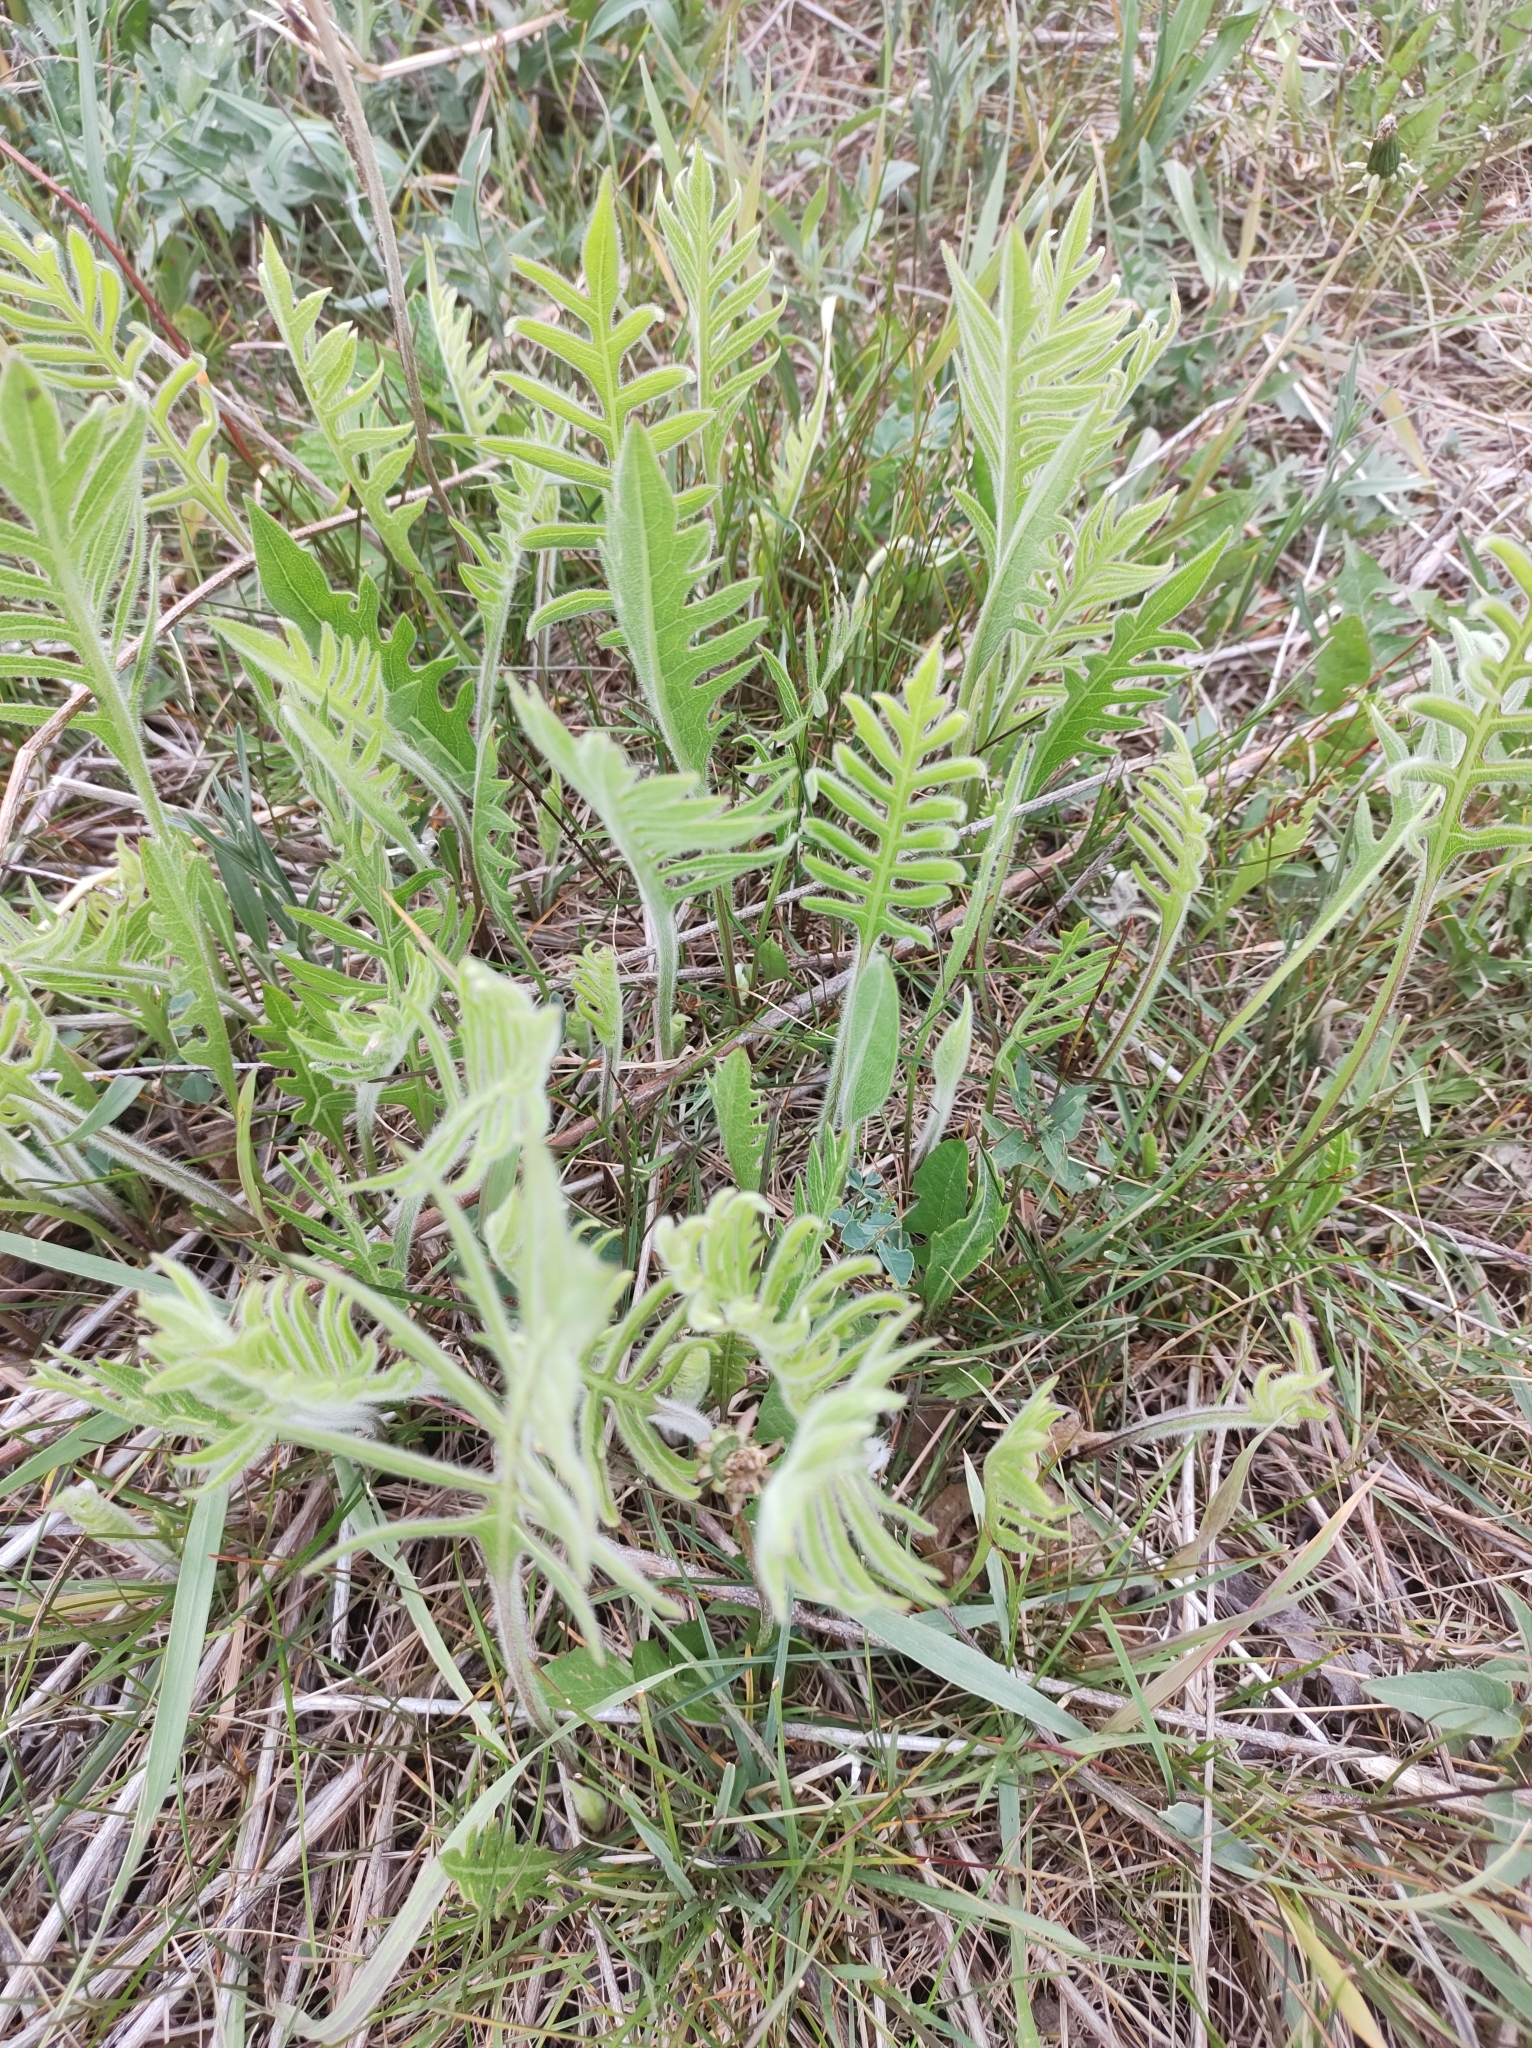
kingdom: Plantae
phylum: Tracheophyta
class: Magnoliopsida
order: Asterales
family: Asteraceae
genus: Silphium
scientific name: Silphium laciniatum
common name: Polarplant
